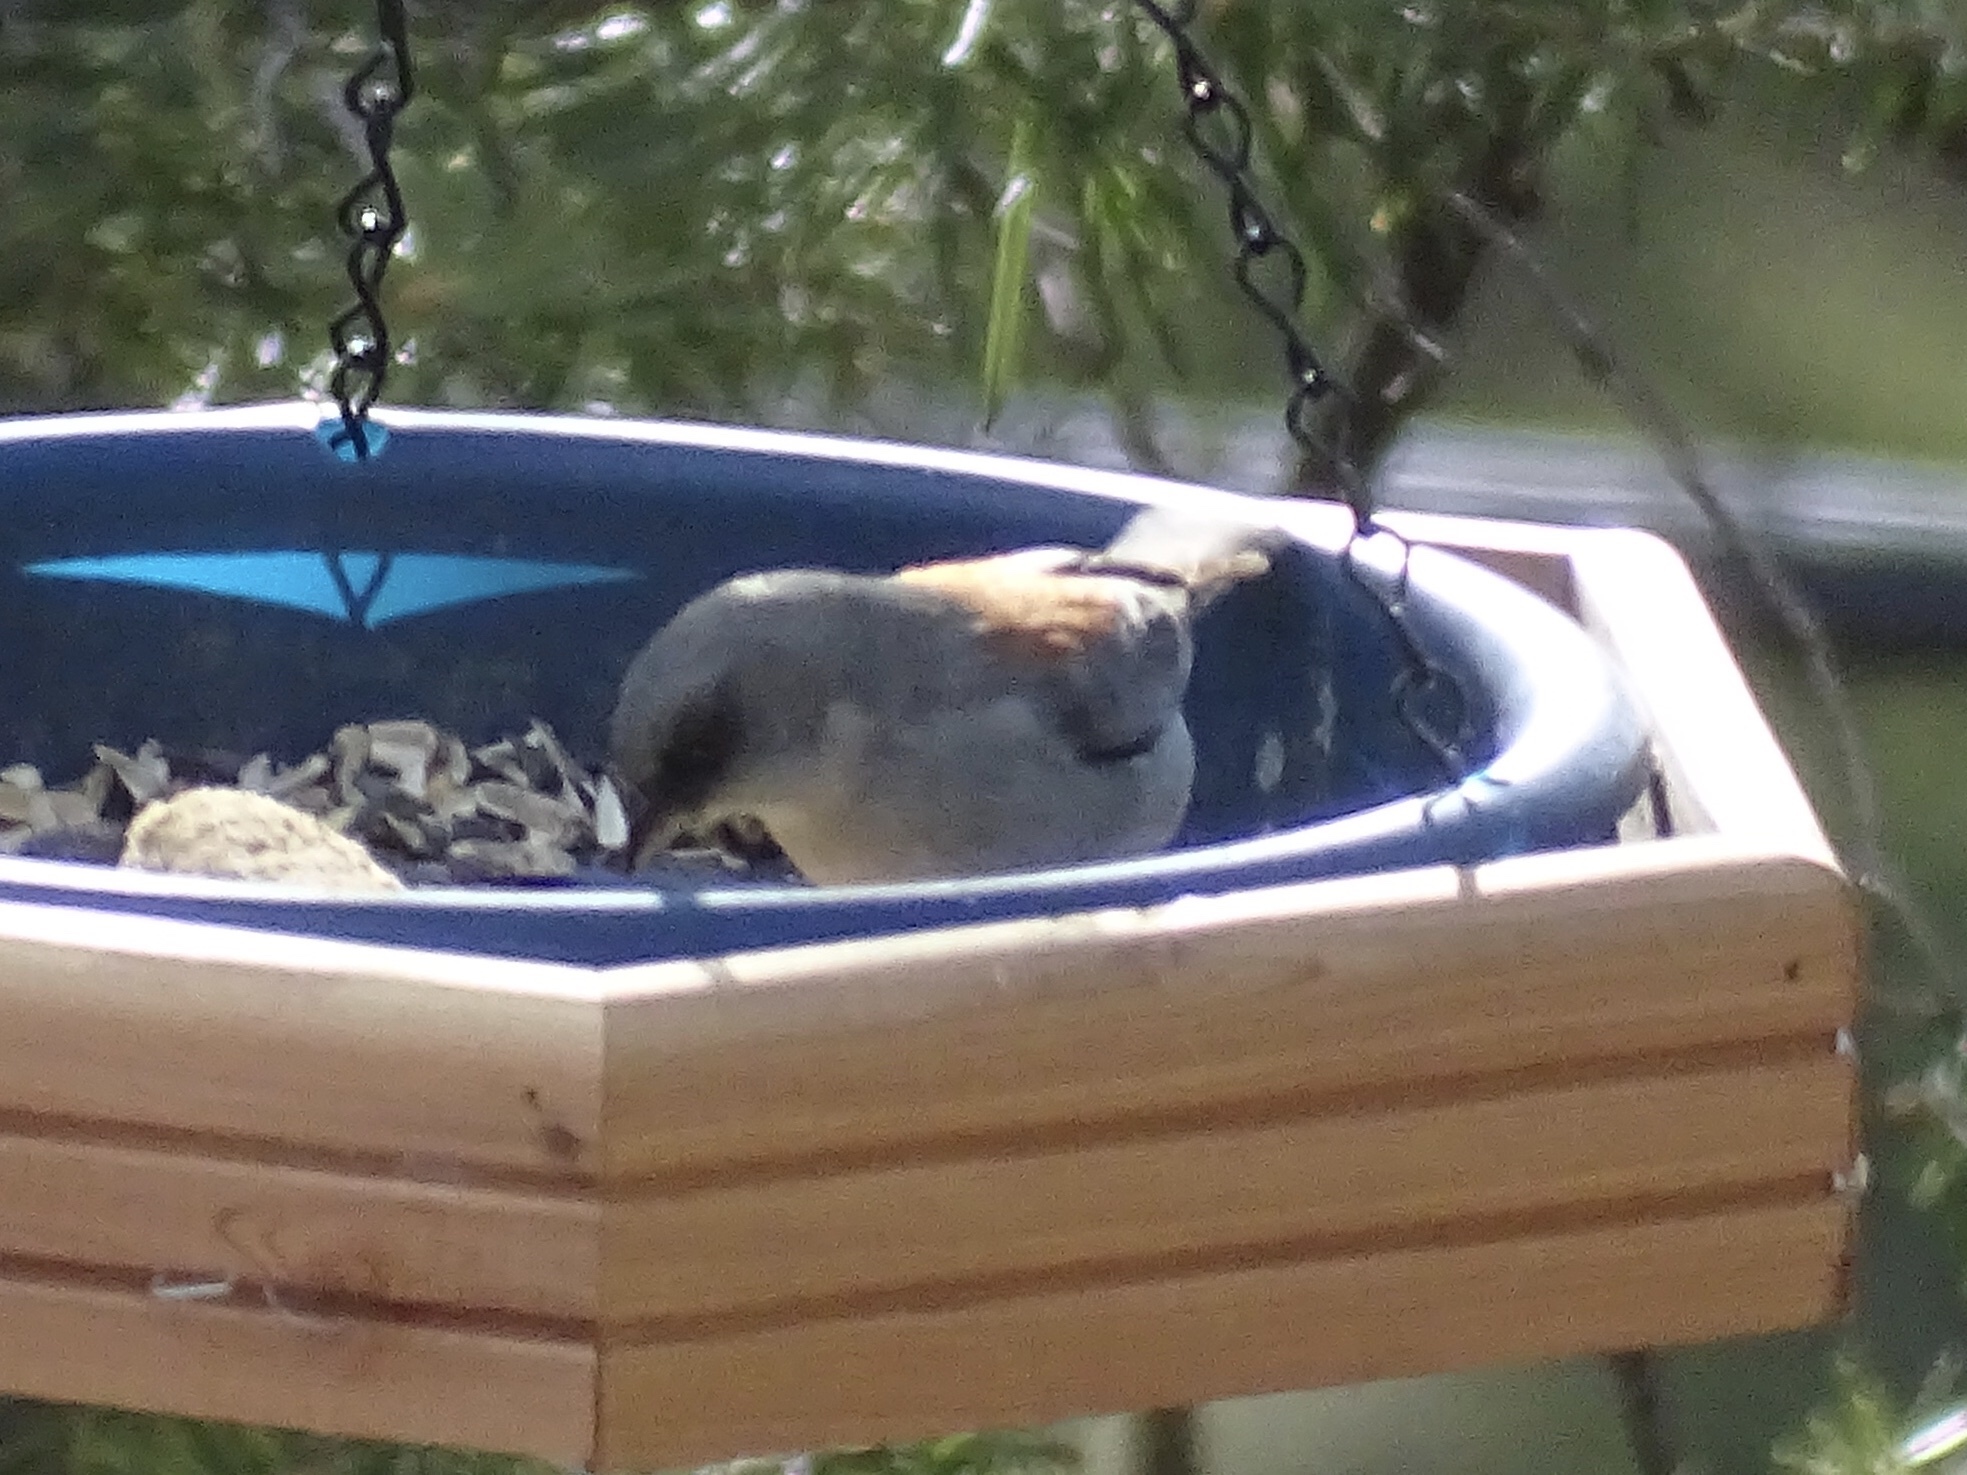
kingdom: Animalia
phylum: Chordata
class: Aves
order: Passeriformes
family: Passerellidae
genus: Junco
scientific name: Junco hyemalis
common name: Dark-eyed junco
